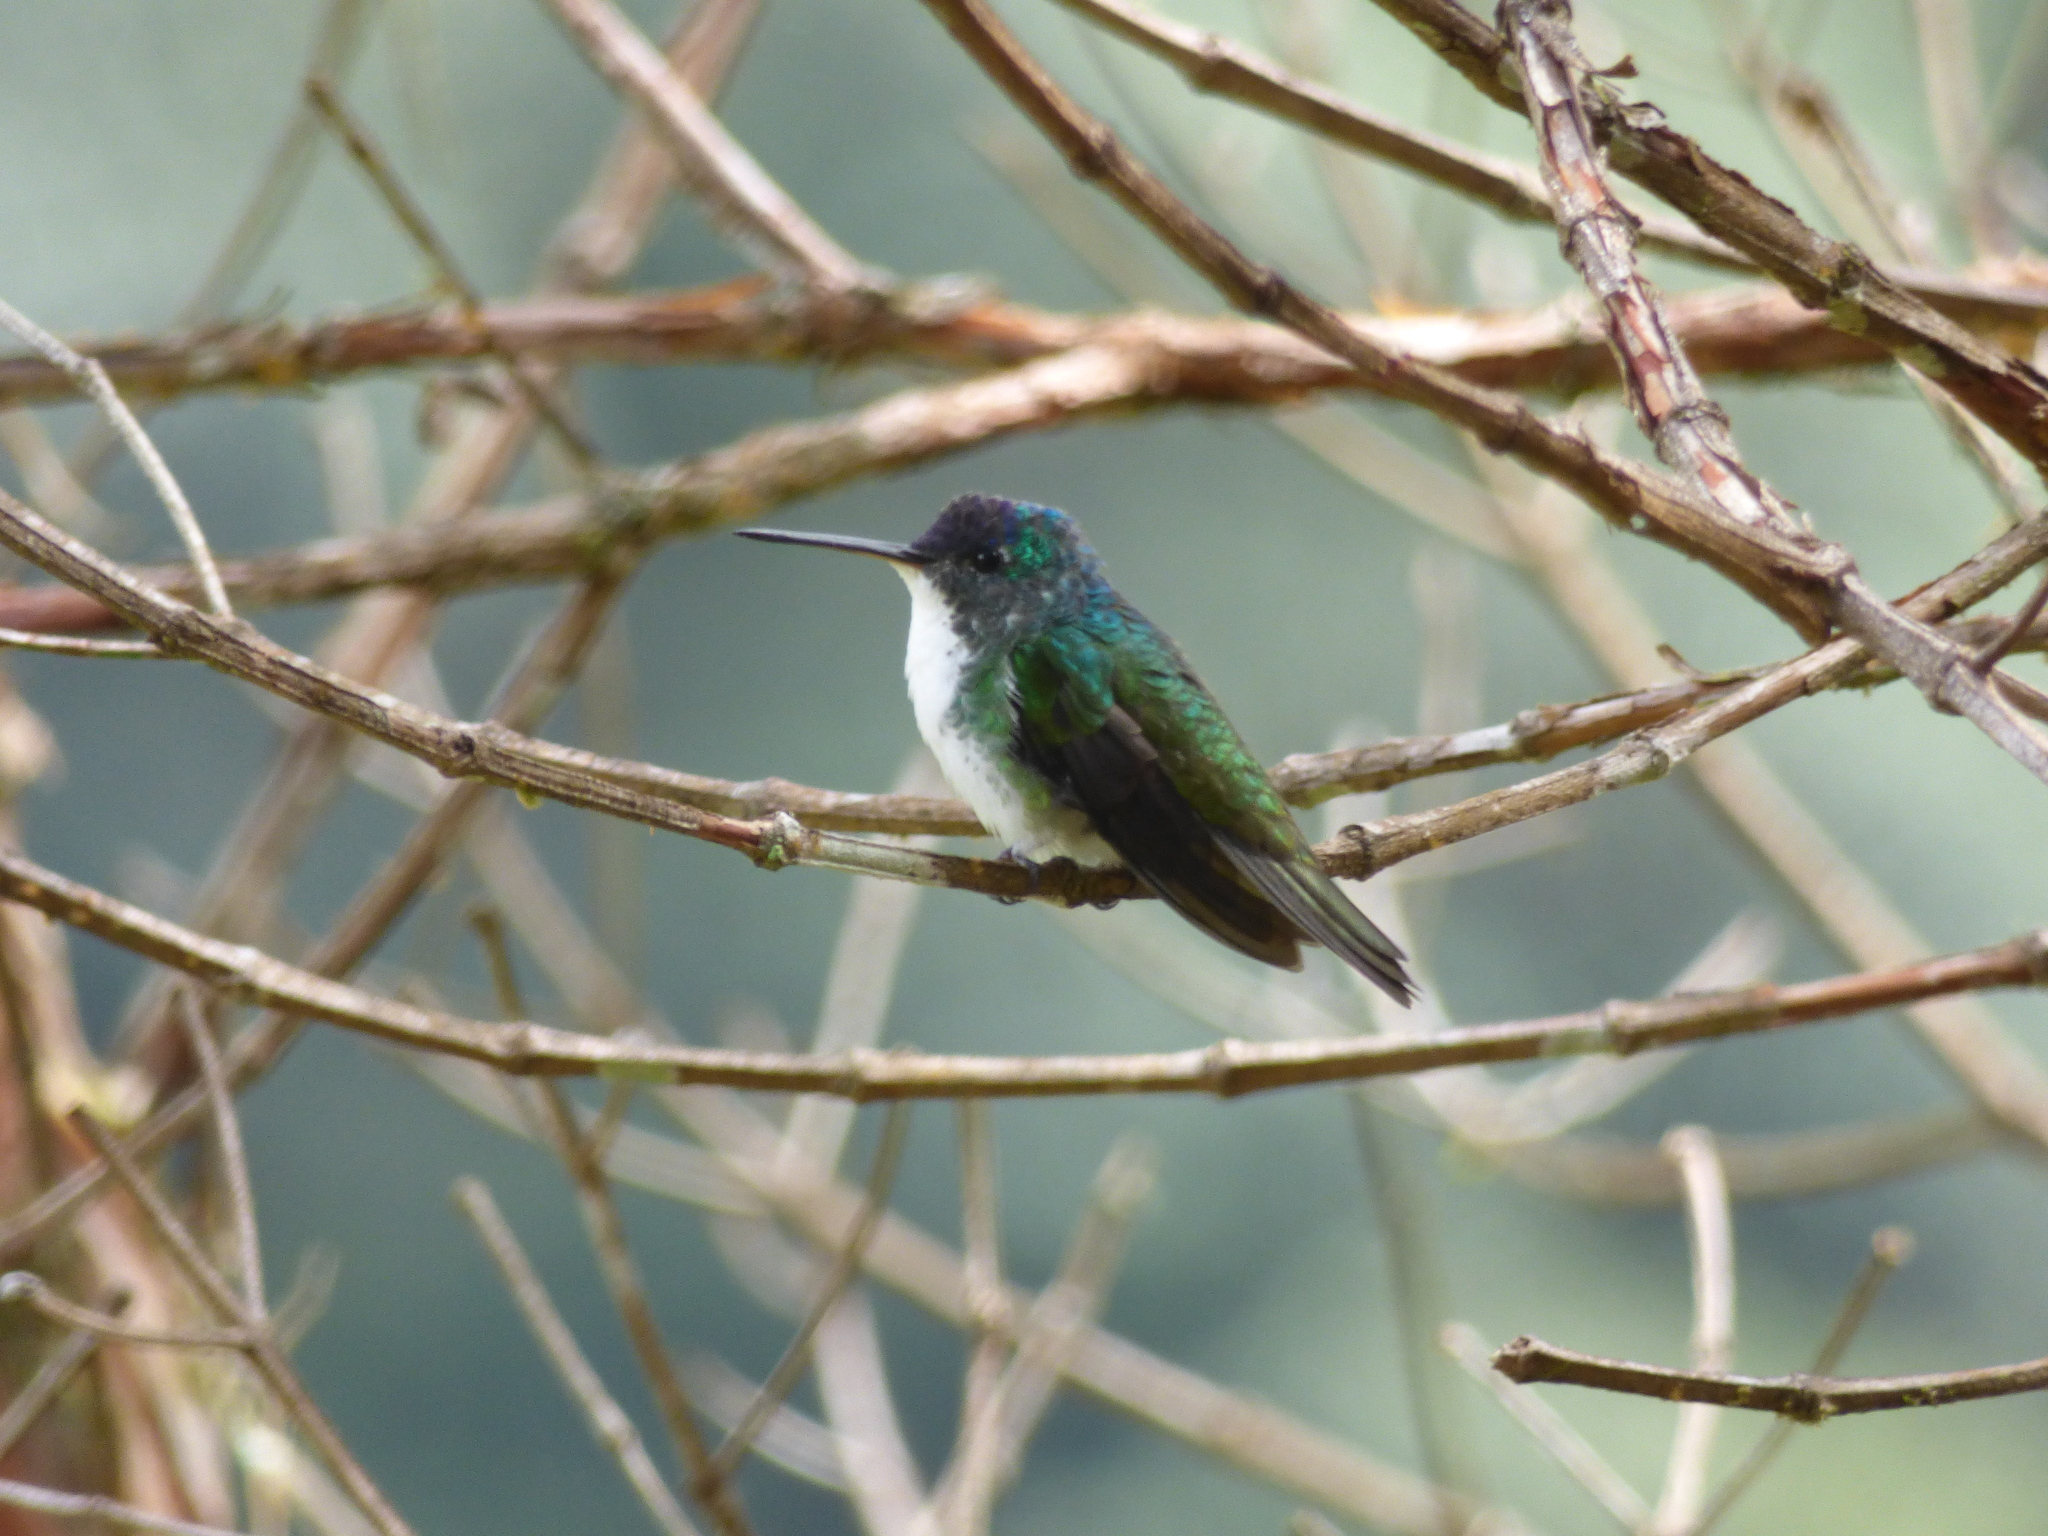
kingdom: Animalia
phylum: Chordata
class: Aves
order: Apodiformes
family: Trochilidae
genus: Uranomitra
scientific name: Uranomitra franciae
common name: Andean emerald
